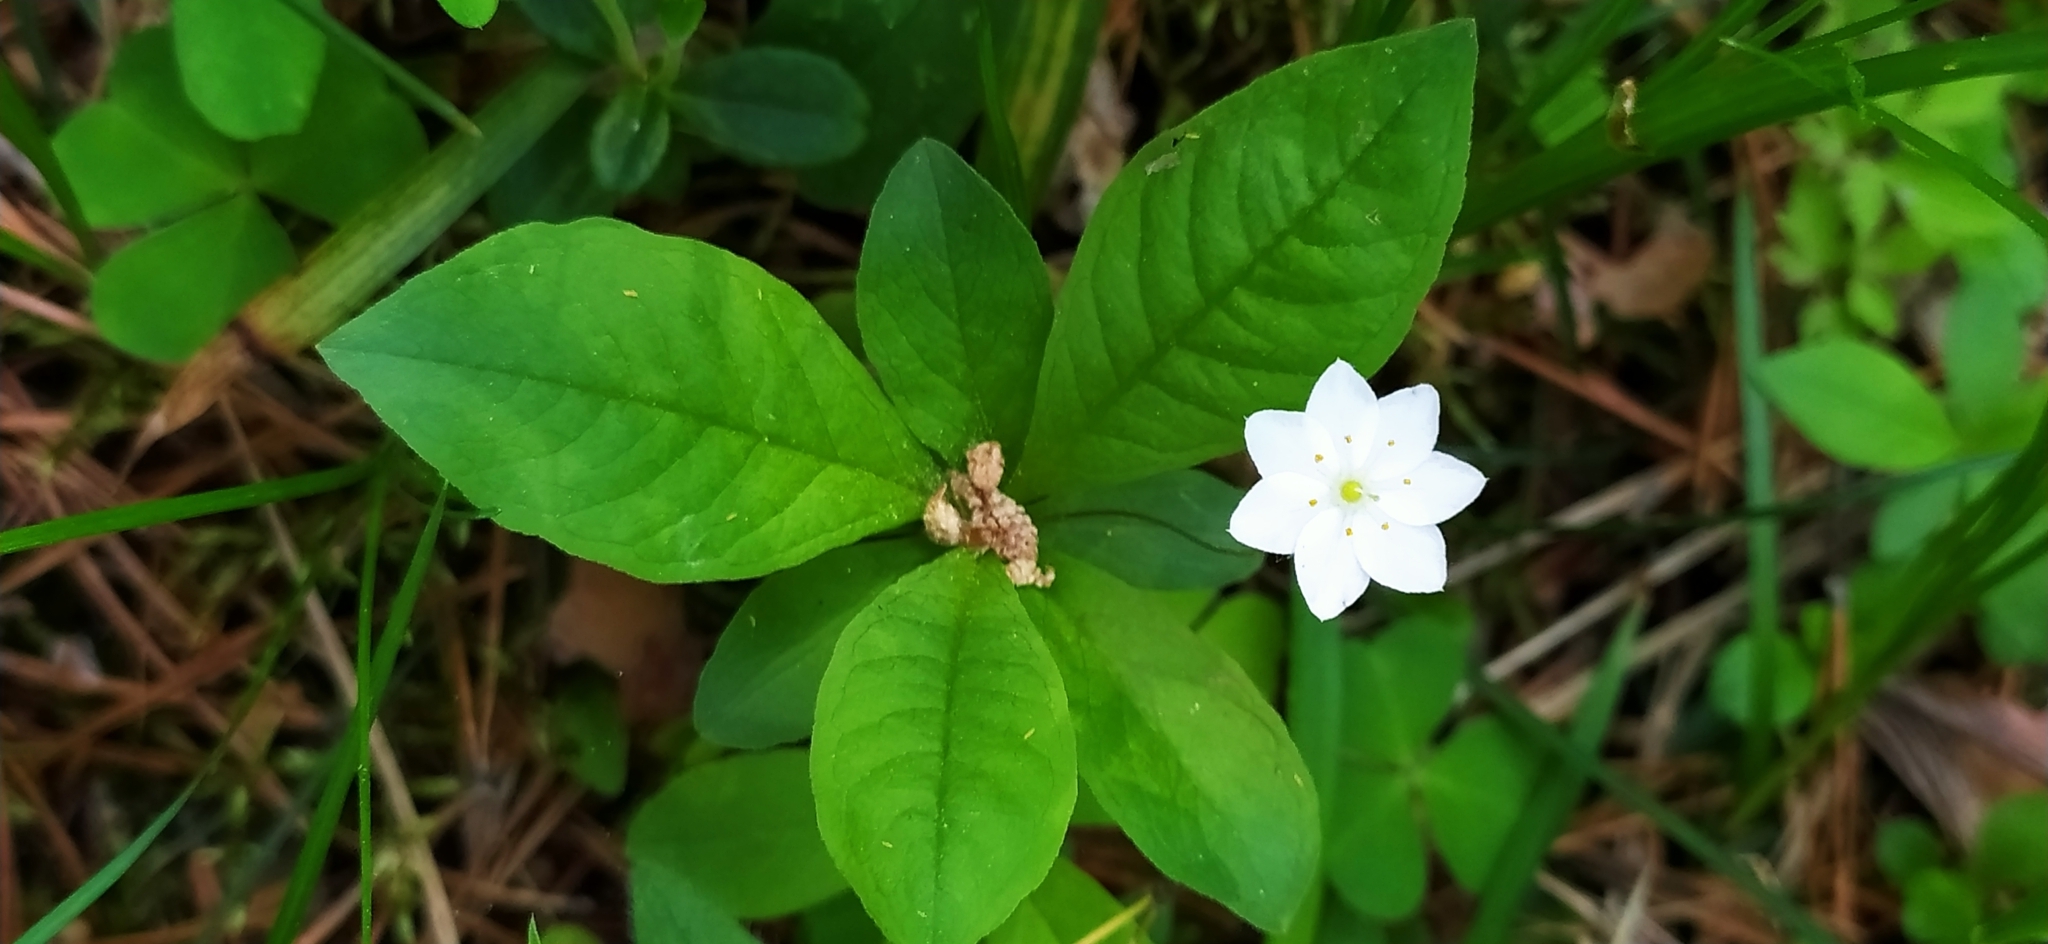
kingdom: Plantae
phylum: Tracheophyta
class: Magnoliopsida
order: Ericales
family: Primulaceae
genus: Lysimachia
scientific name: Lysimachia europaea
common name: Arctic starflower
